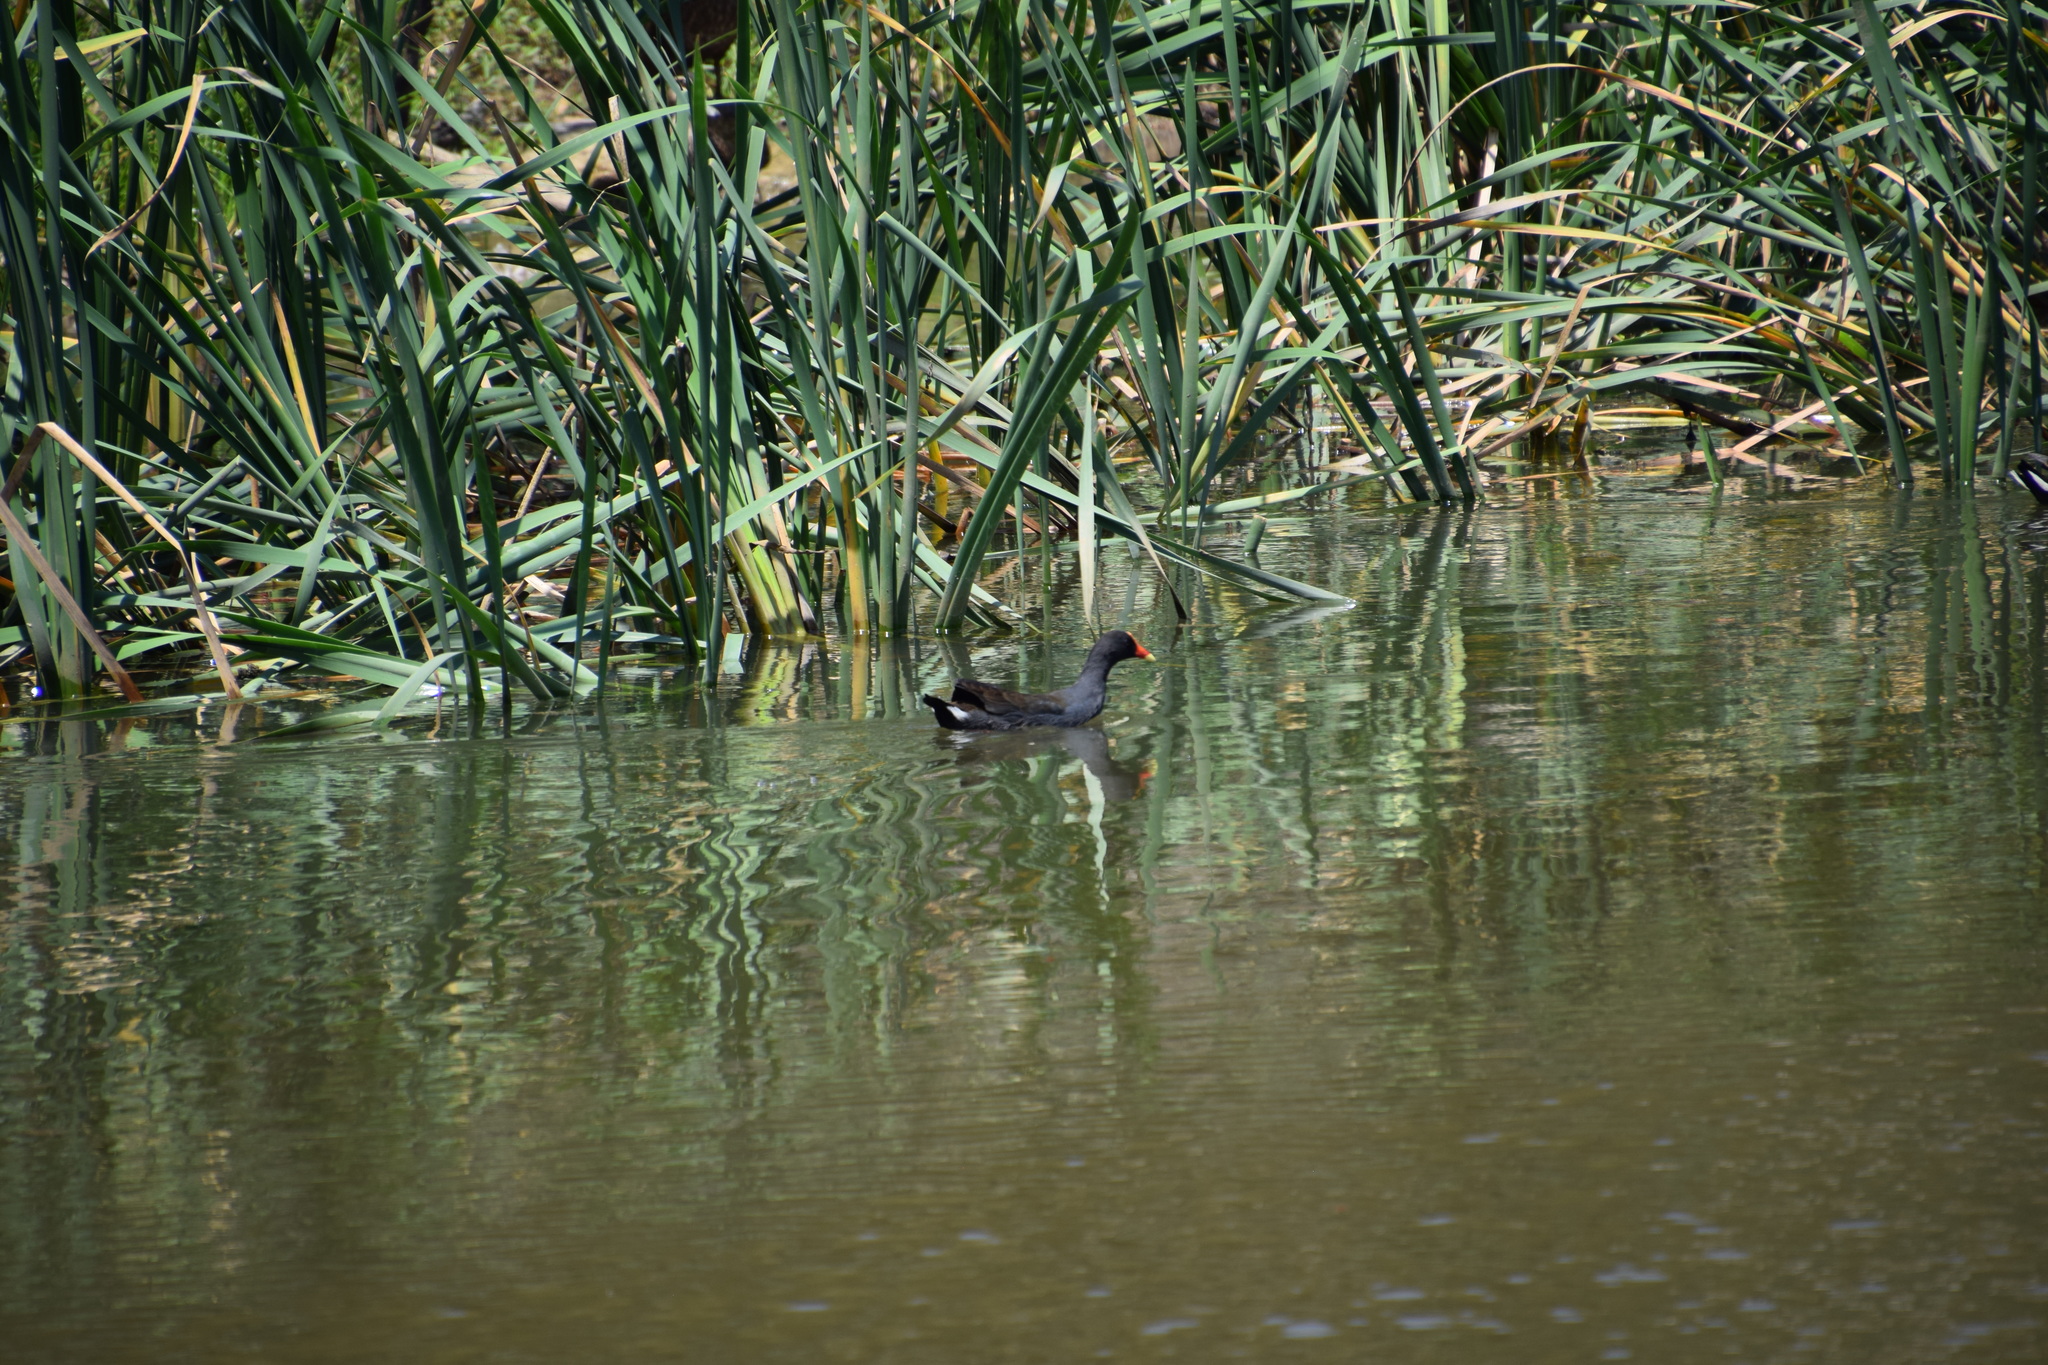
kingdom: Animalia
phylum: Chordata
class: Aves
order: Gruiformes
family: Rallidae
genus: Gallinula
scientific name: Gallinula tenebrosa
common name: Dusky moorhen
